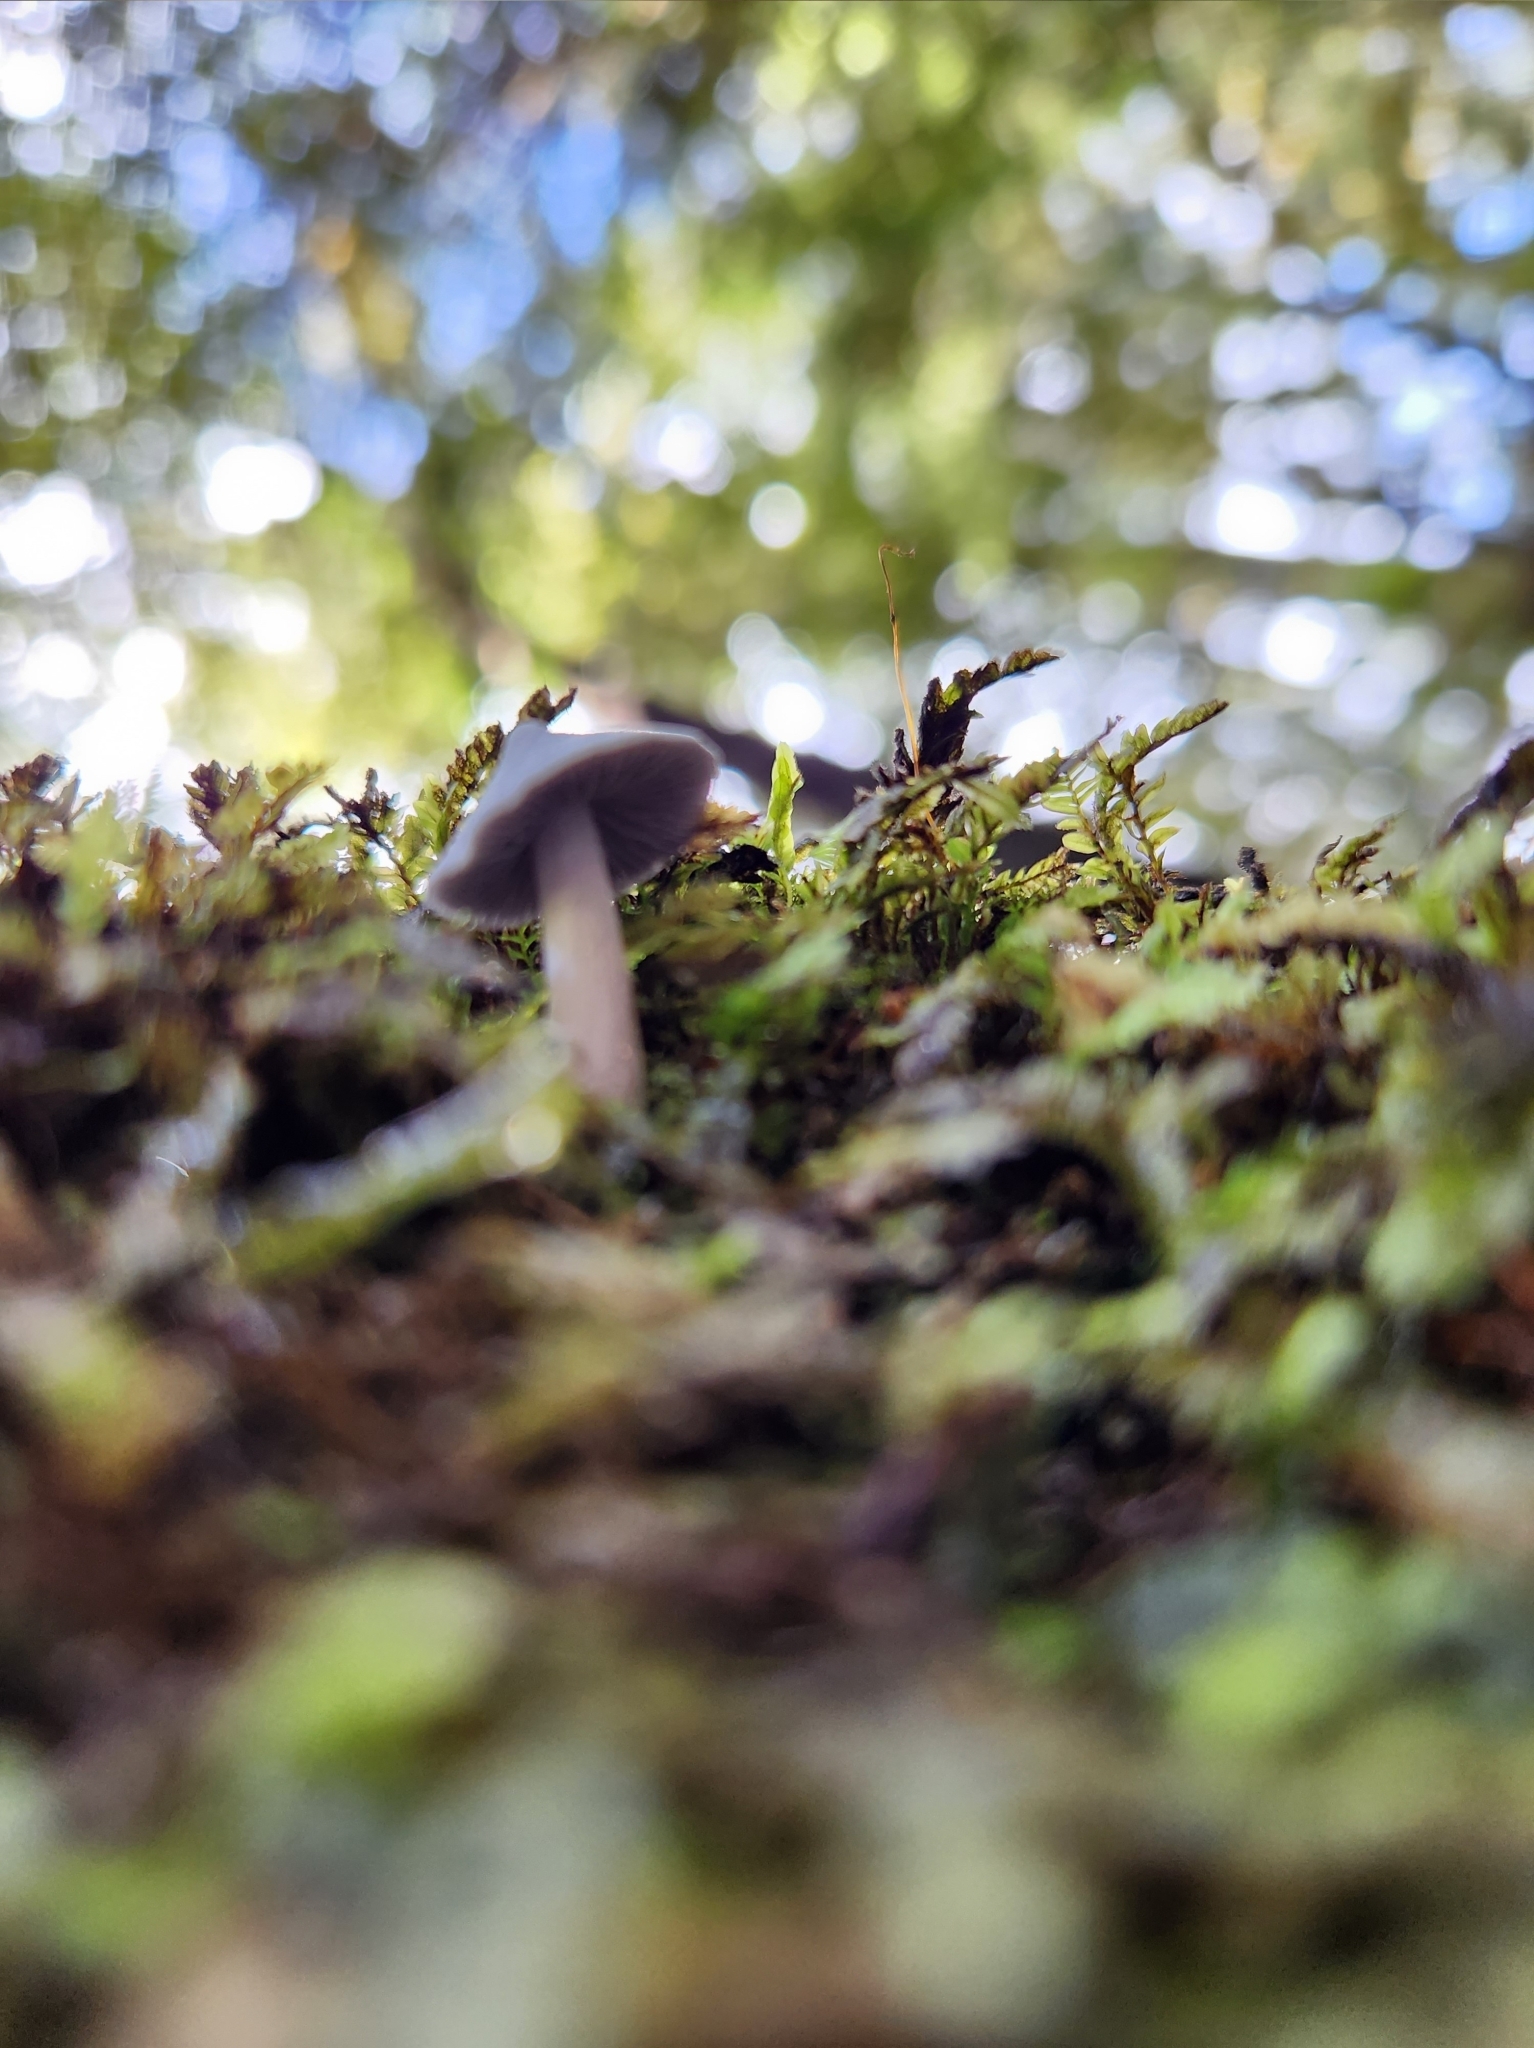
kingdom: Fungi
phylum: Basidiomycota
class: Agaricomycetes
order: Agaricales
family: Entolomataceae
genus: Entoloma
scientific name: Entoloma hochstetteri
